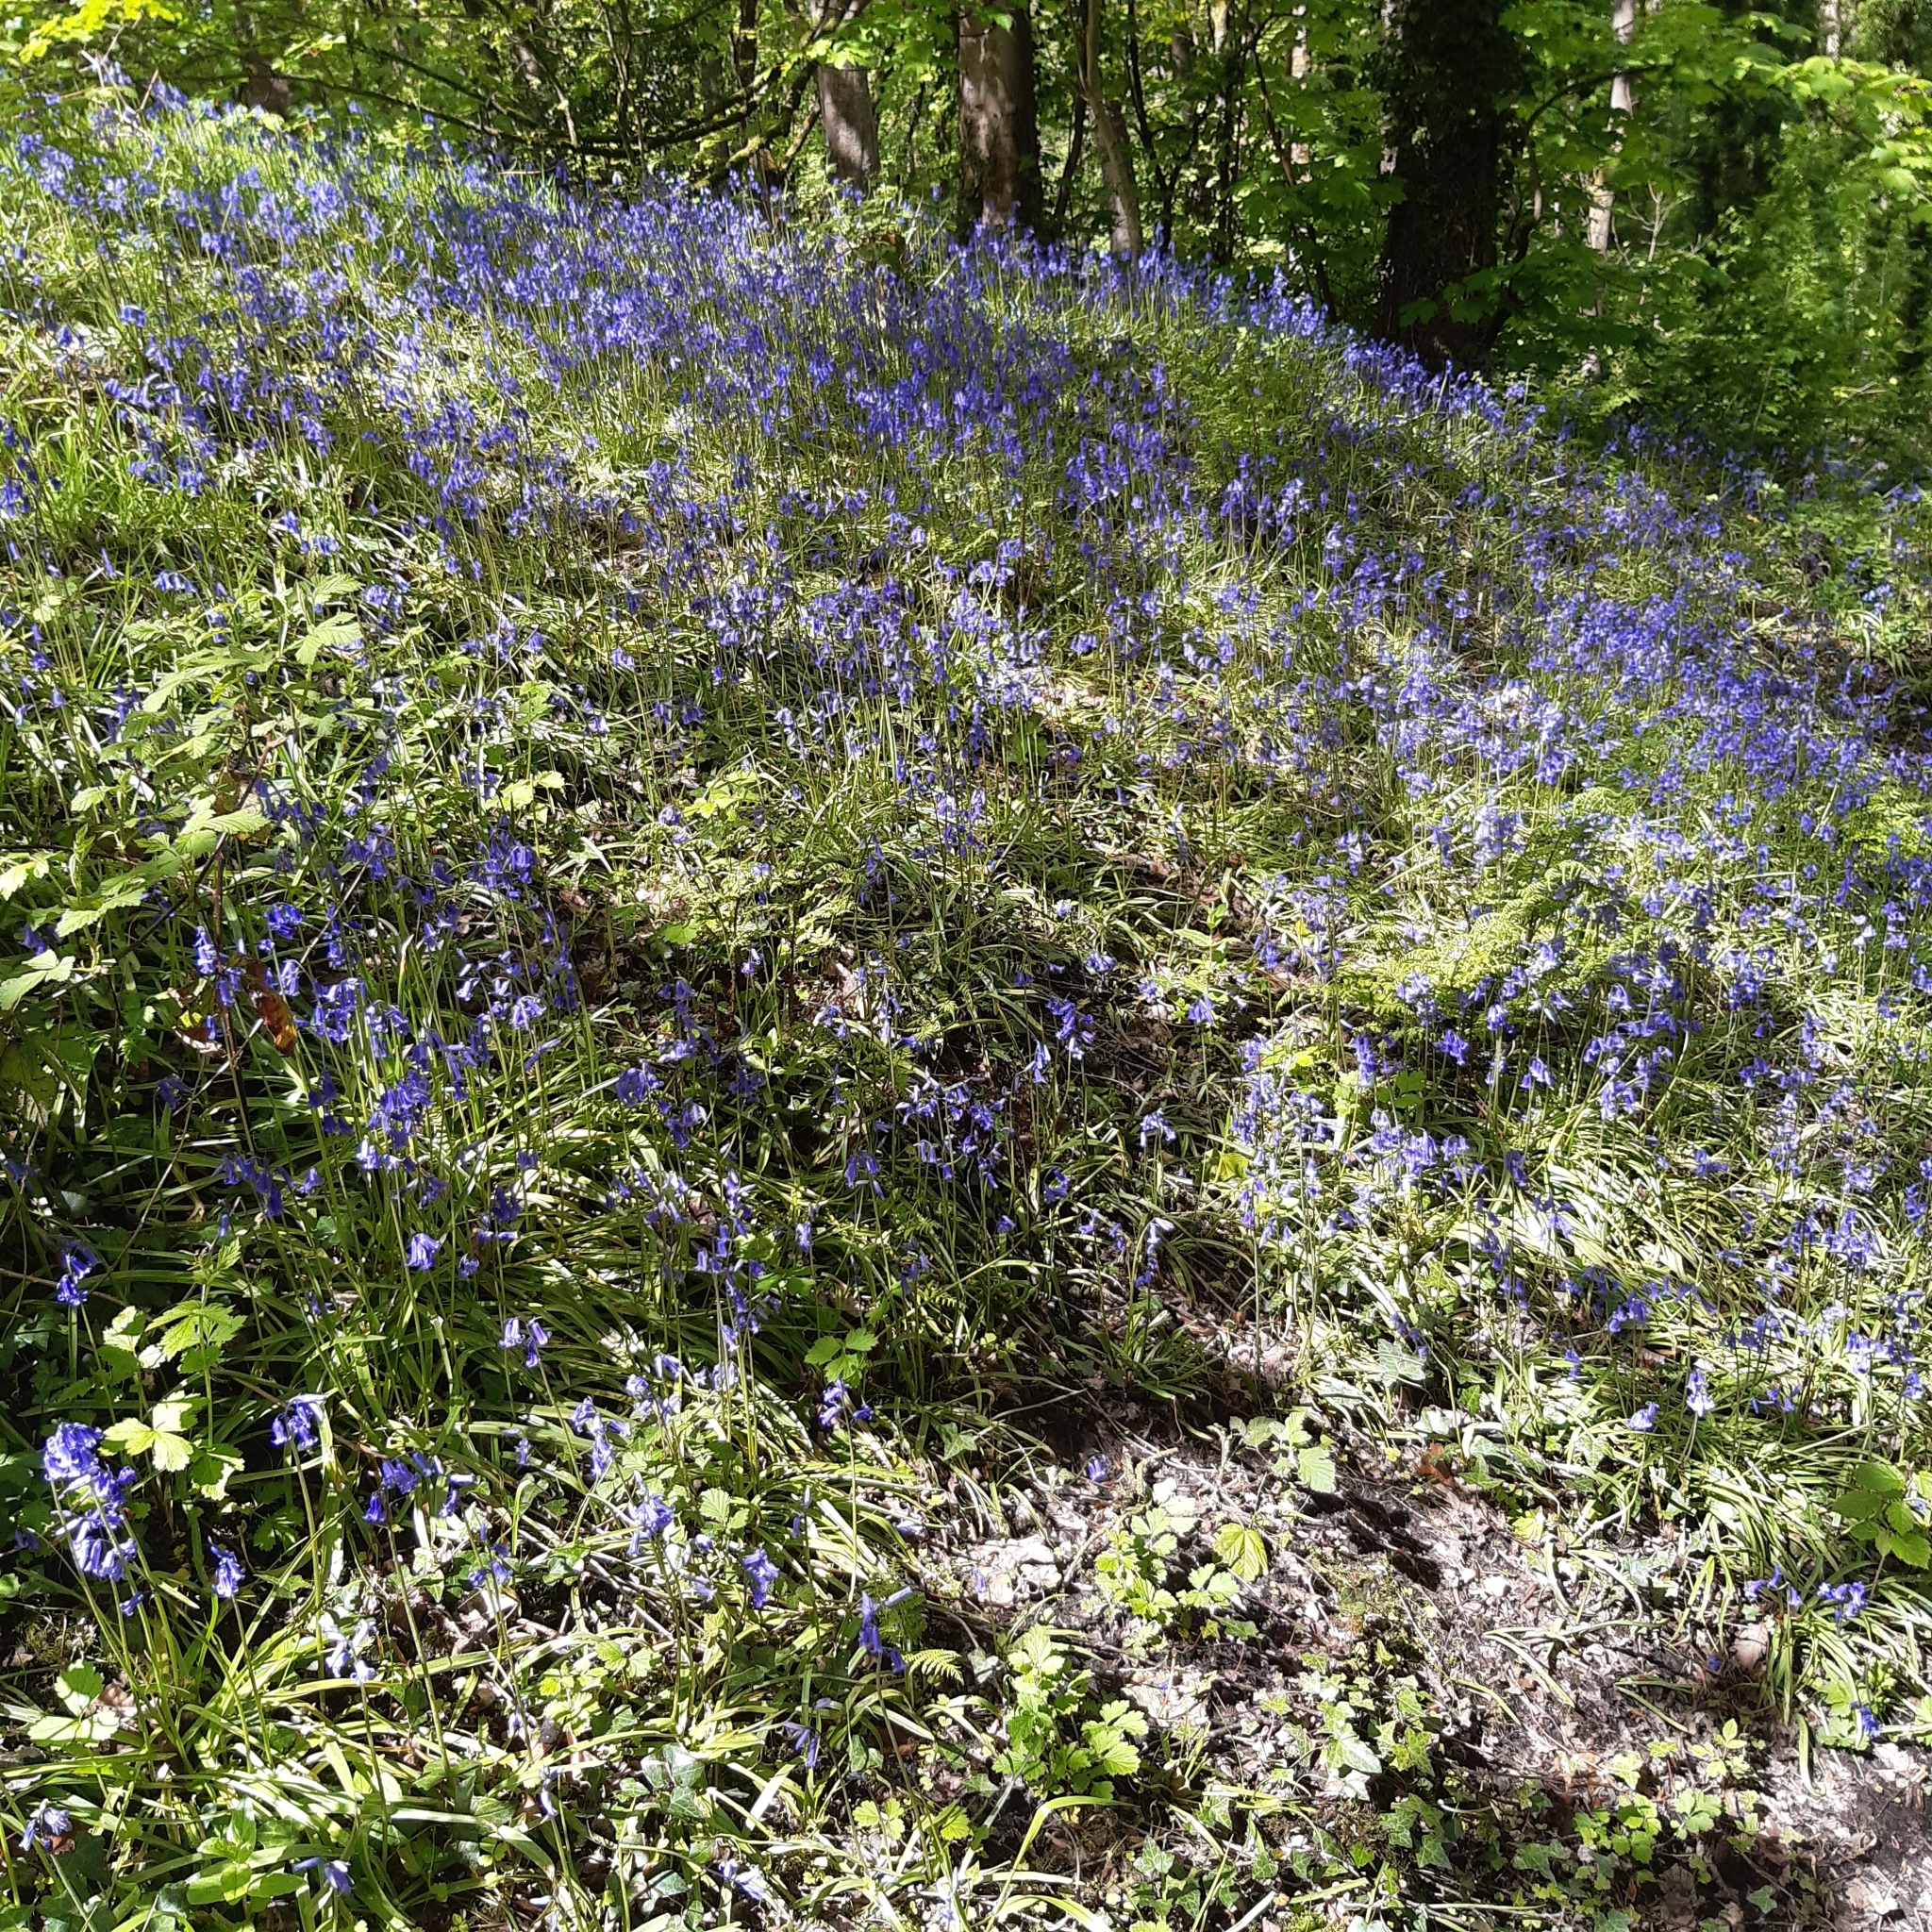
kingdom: Plantae
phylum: Tracheophyta
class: Liliopsida
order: Asparagales
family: Asparagaceae
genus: Hyacinthoides
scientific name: Hyacinthoides non-scripta
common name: Bluebell
